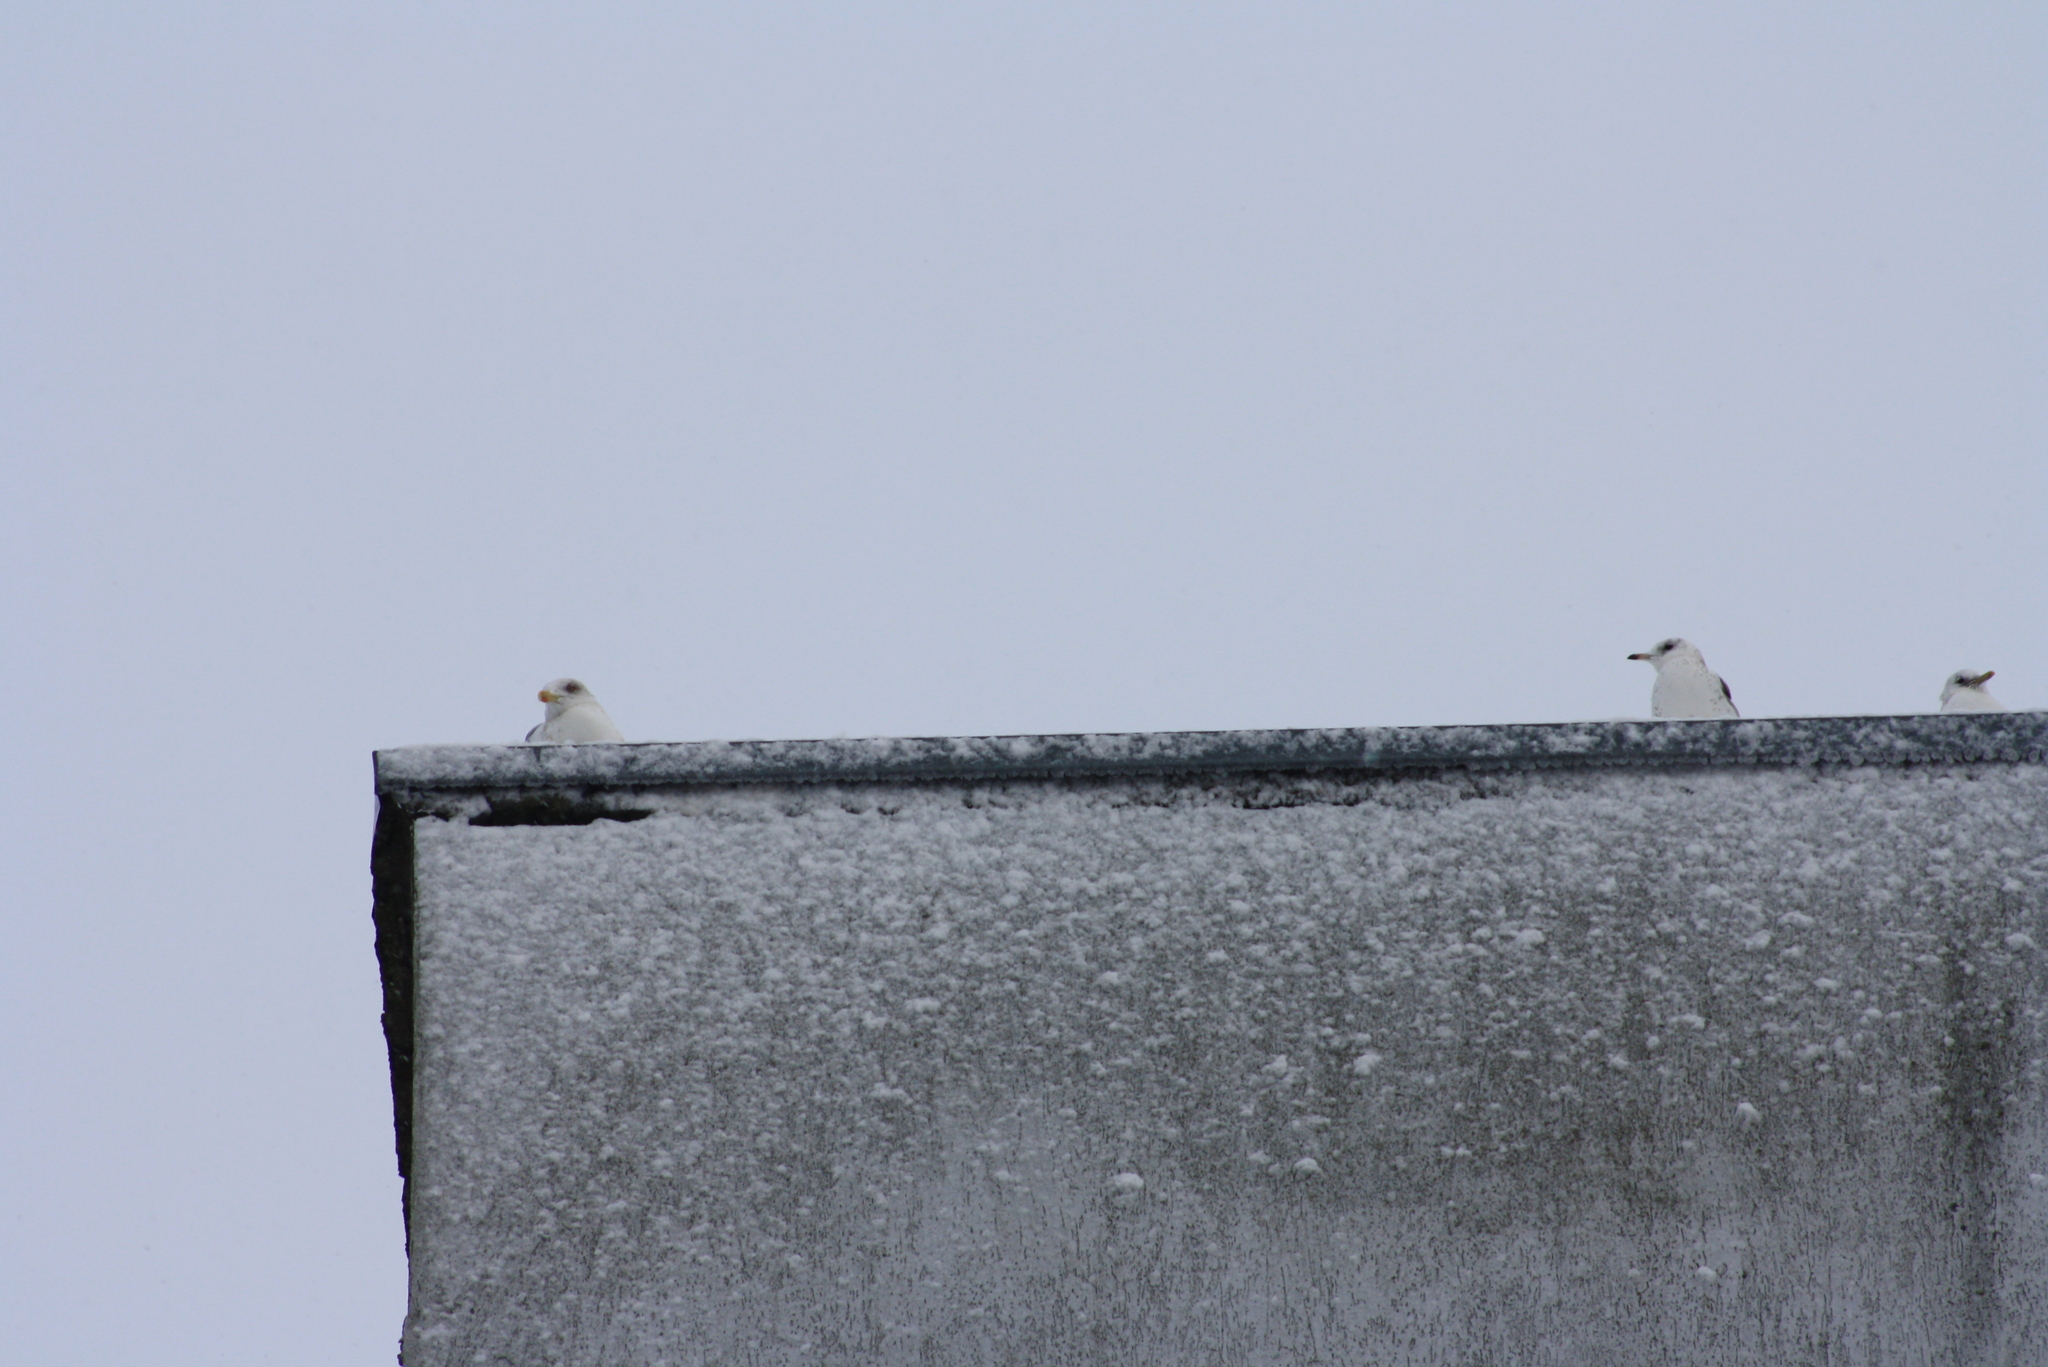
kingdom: Animalia
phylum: Chordata
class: Aves
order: Charadriiformes
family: Laridae
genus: Larus
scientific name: Larus canus
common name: Mew gull
